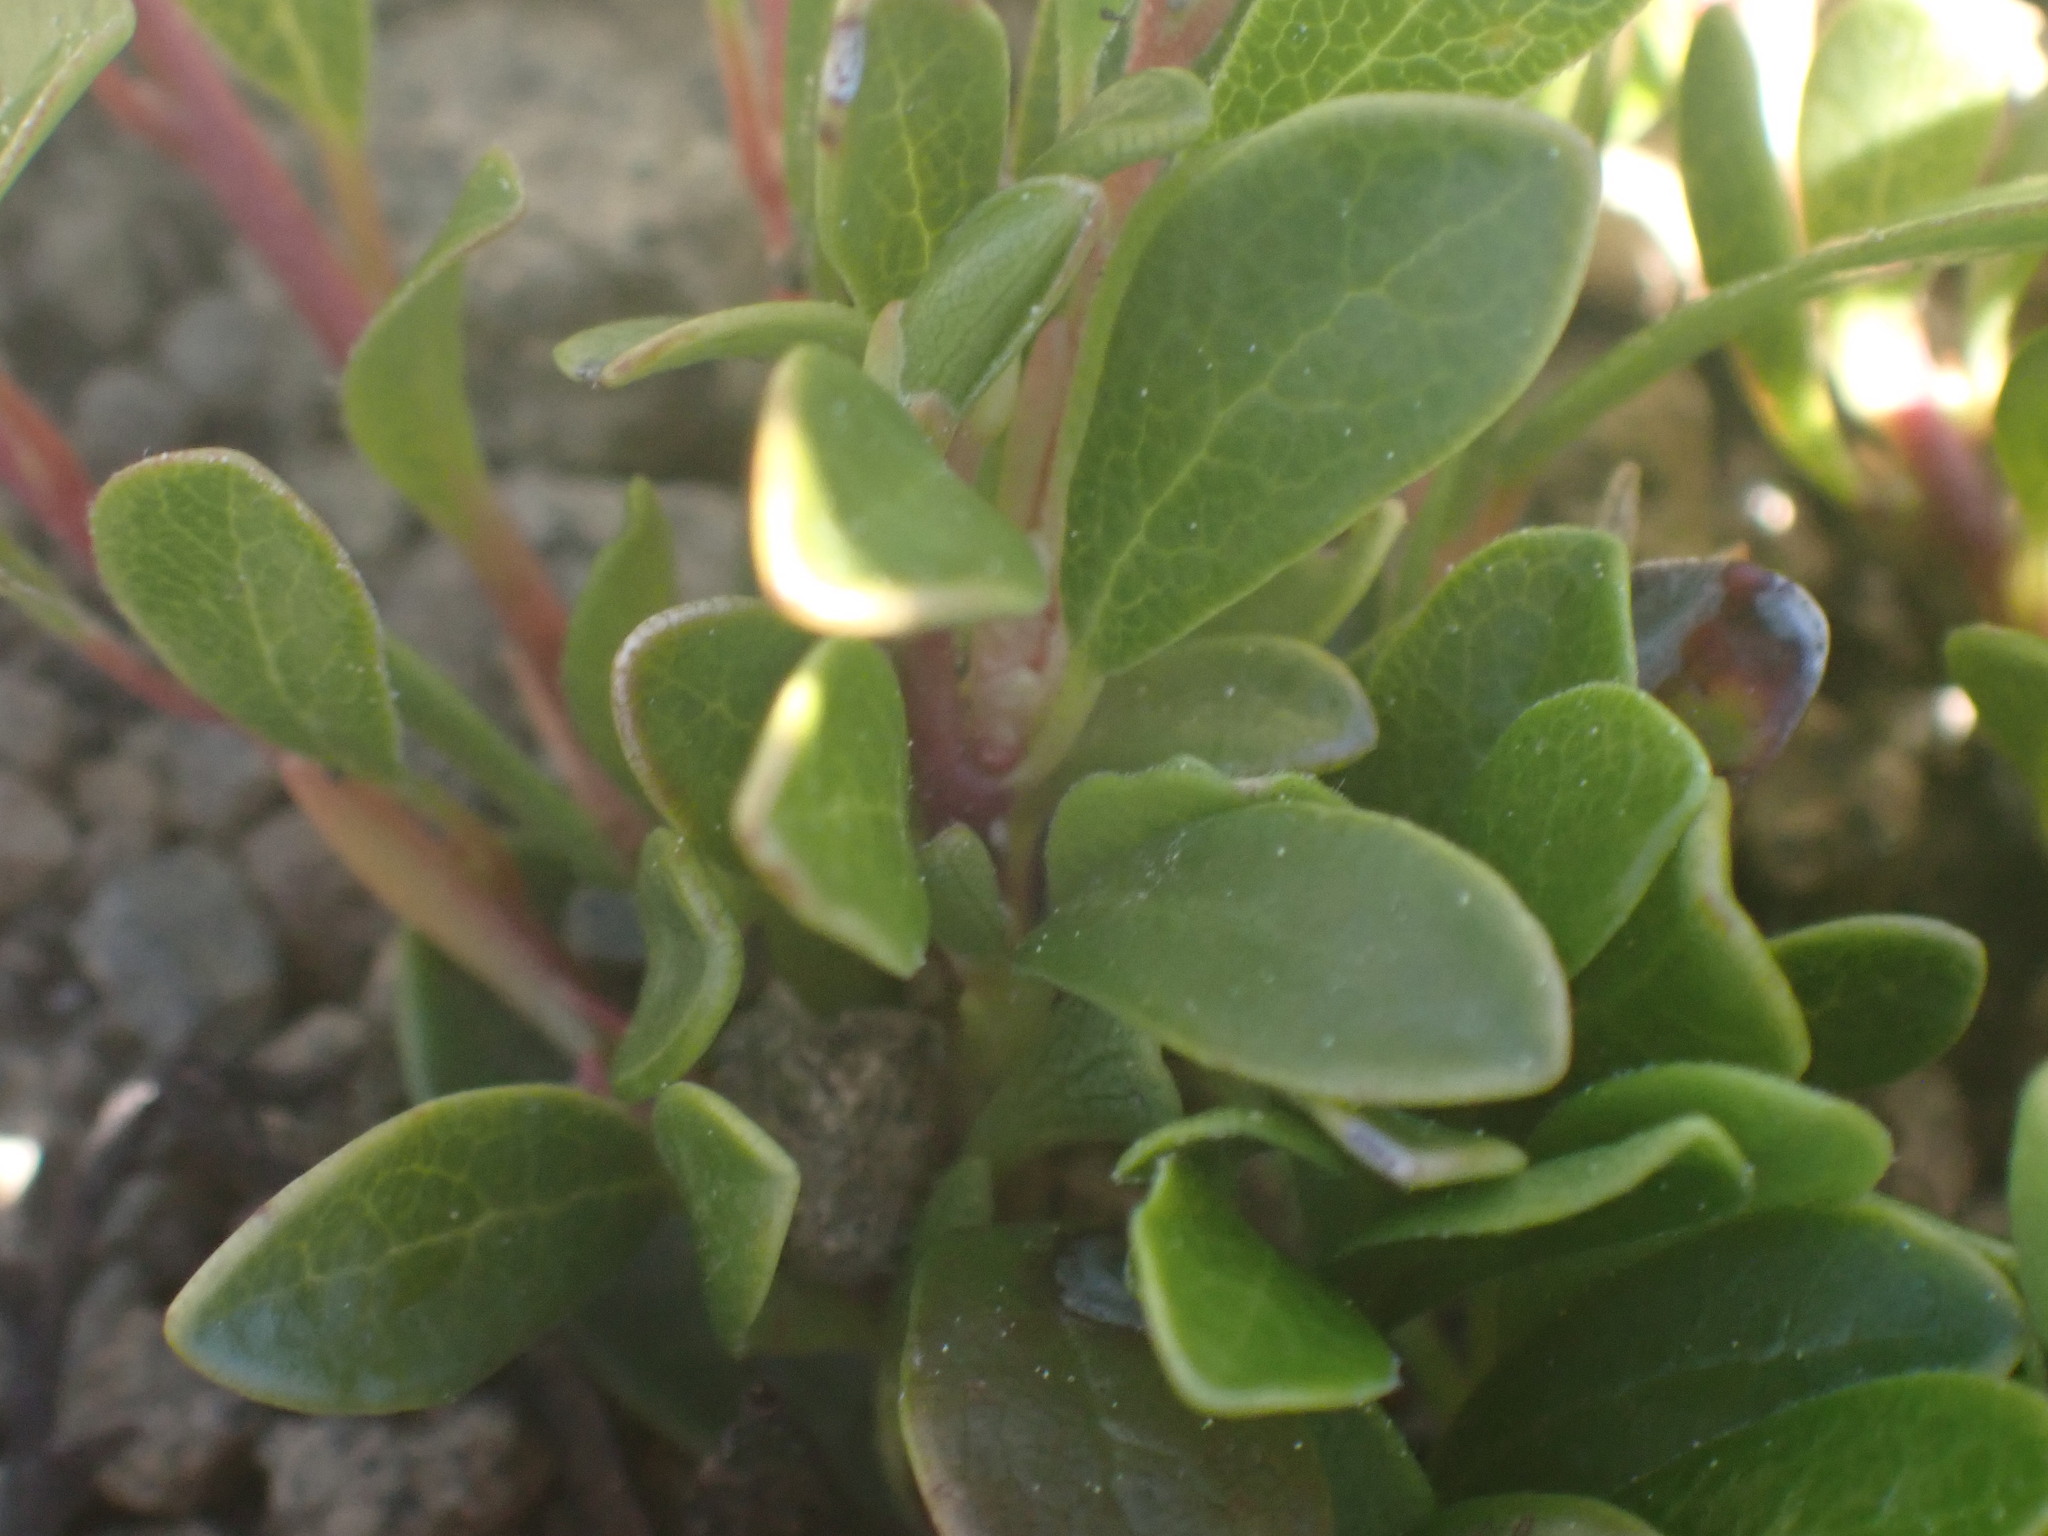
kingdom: Plantae
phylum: Tracheophyta
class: Magnoliopsida
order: Ericales
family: Ericaceae
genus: Arctostaphylos
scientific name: Arctostaphylos uva-ursi
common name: Bearberry
